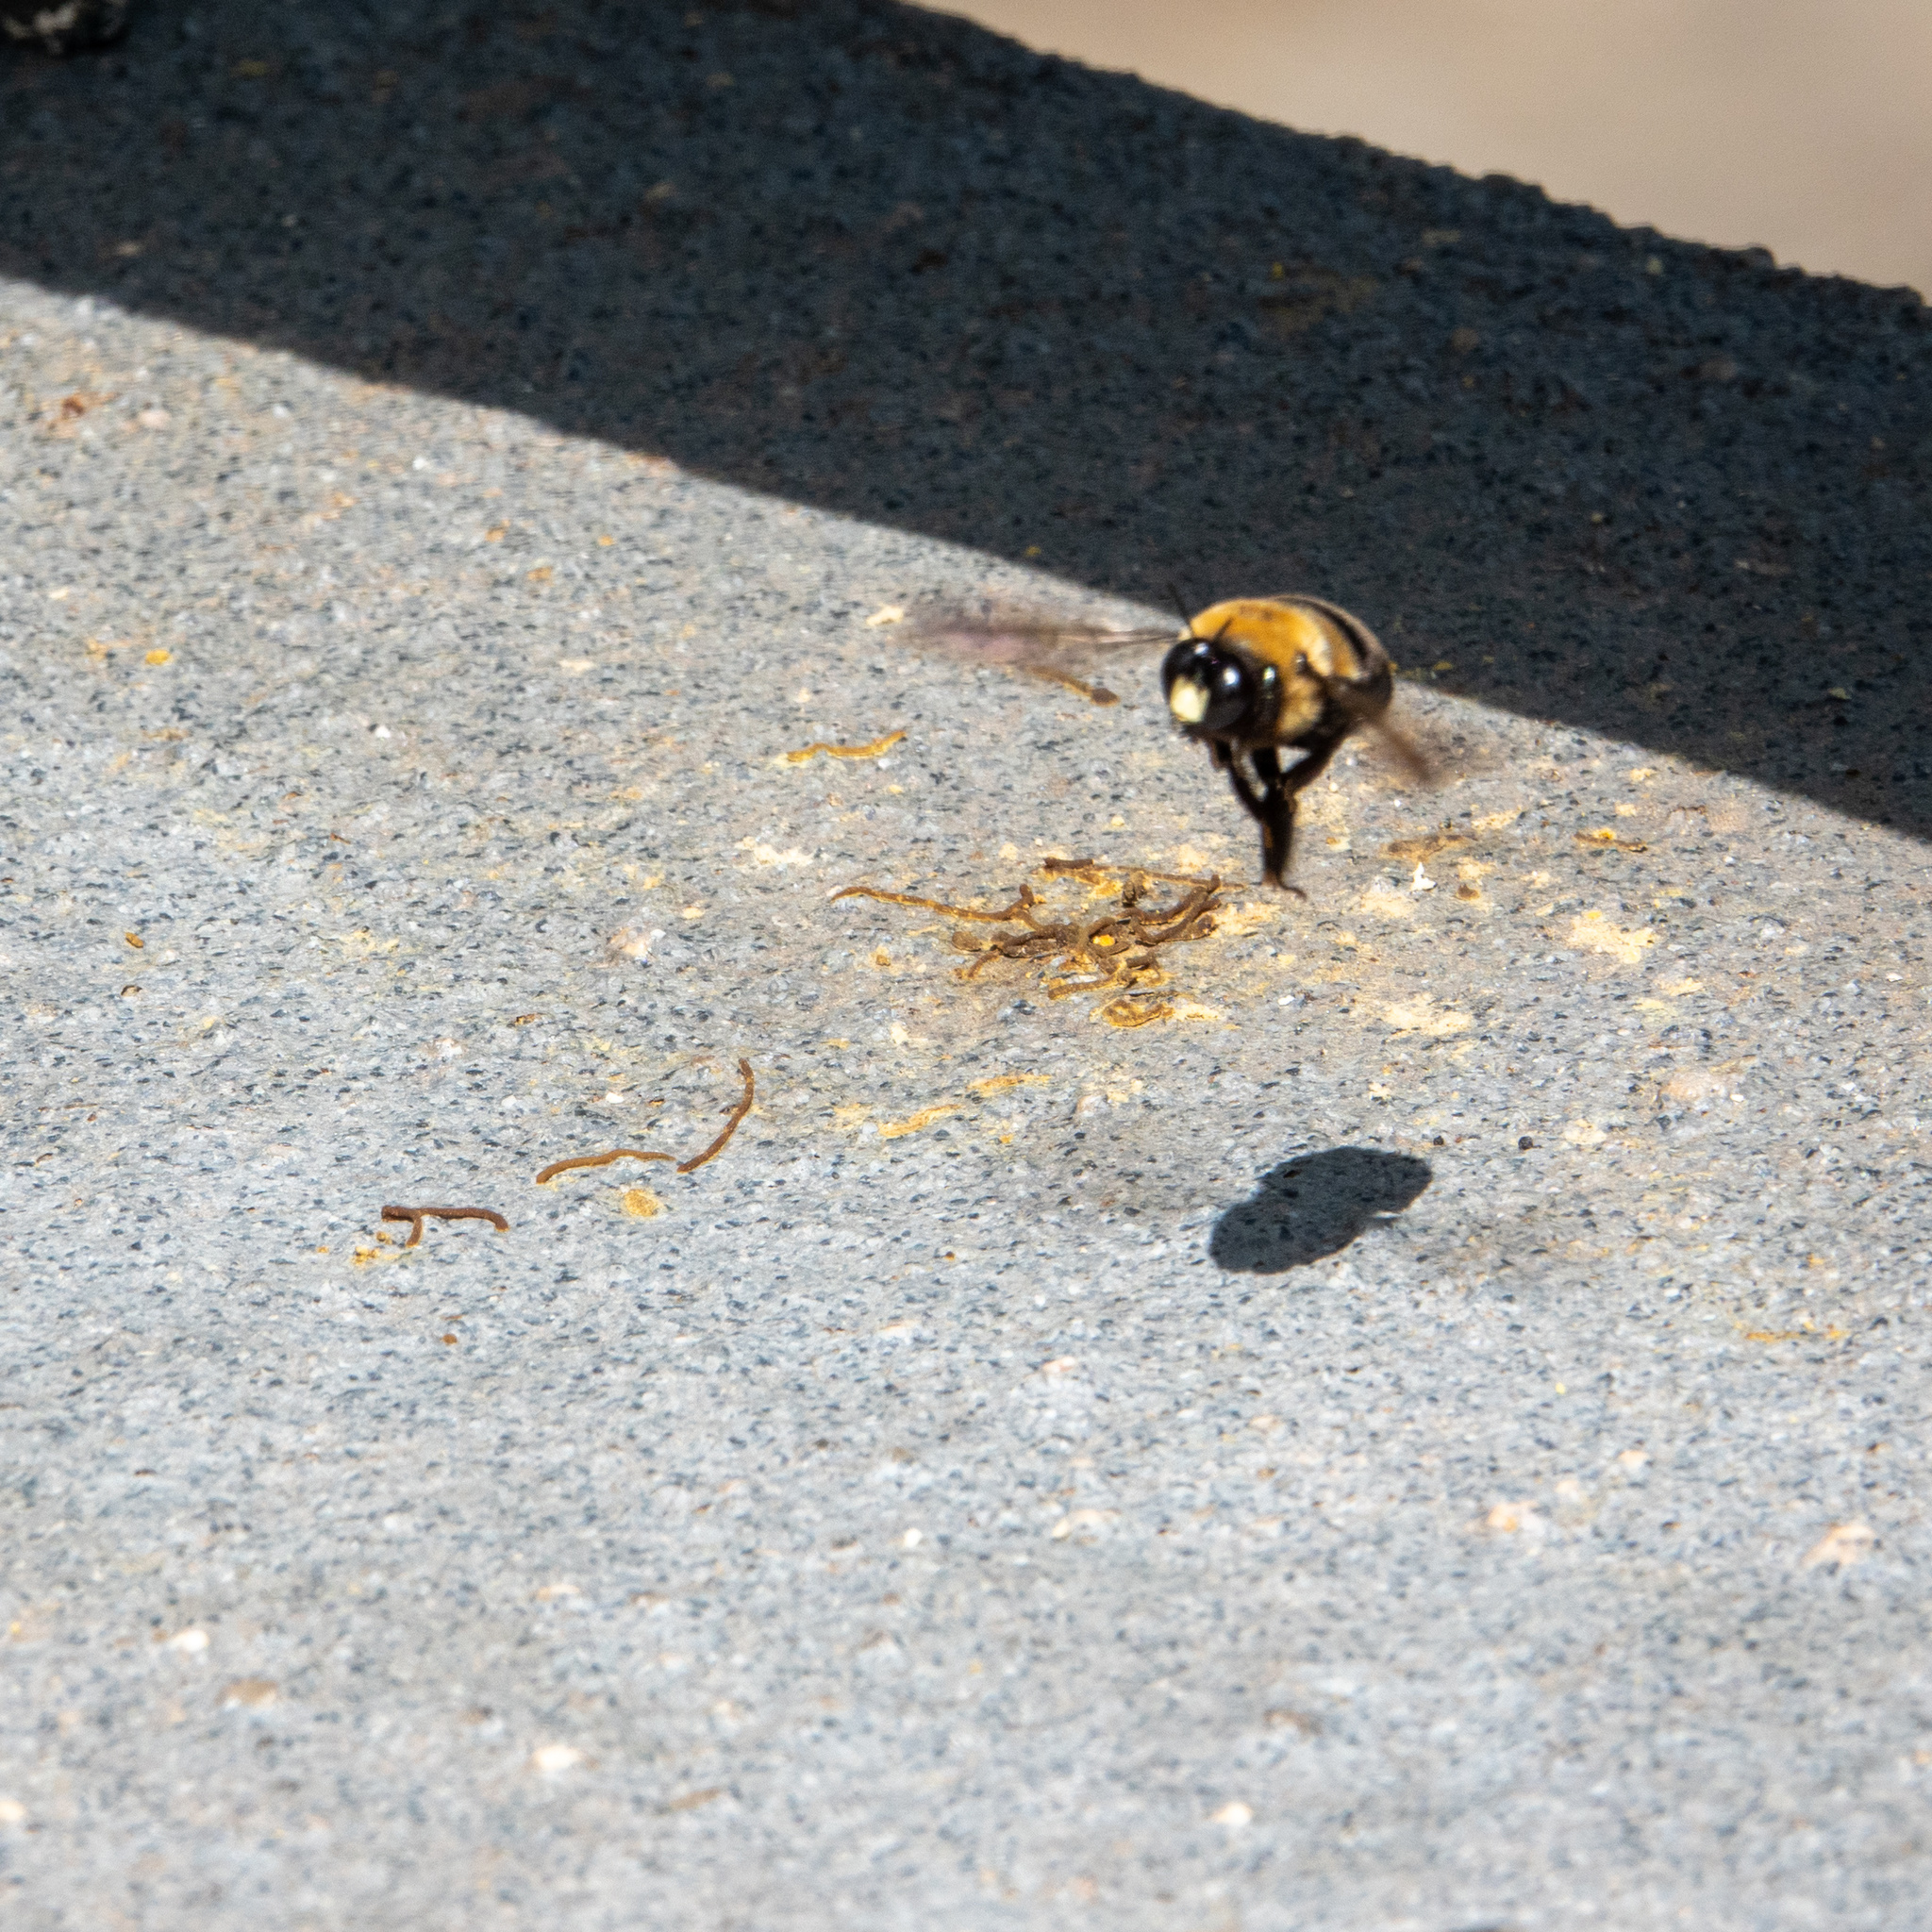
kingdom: Animalia
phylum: Arthropoda
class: Insecta
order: Hymenoptera
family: Apidae
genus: Xylocopa
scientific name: Xylocopa virginica
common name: Carpenter bee
